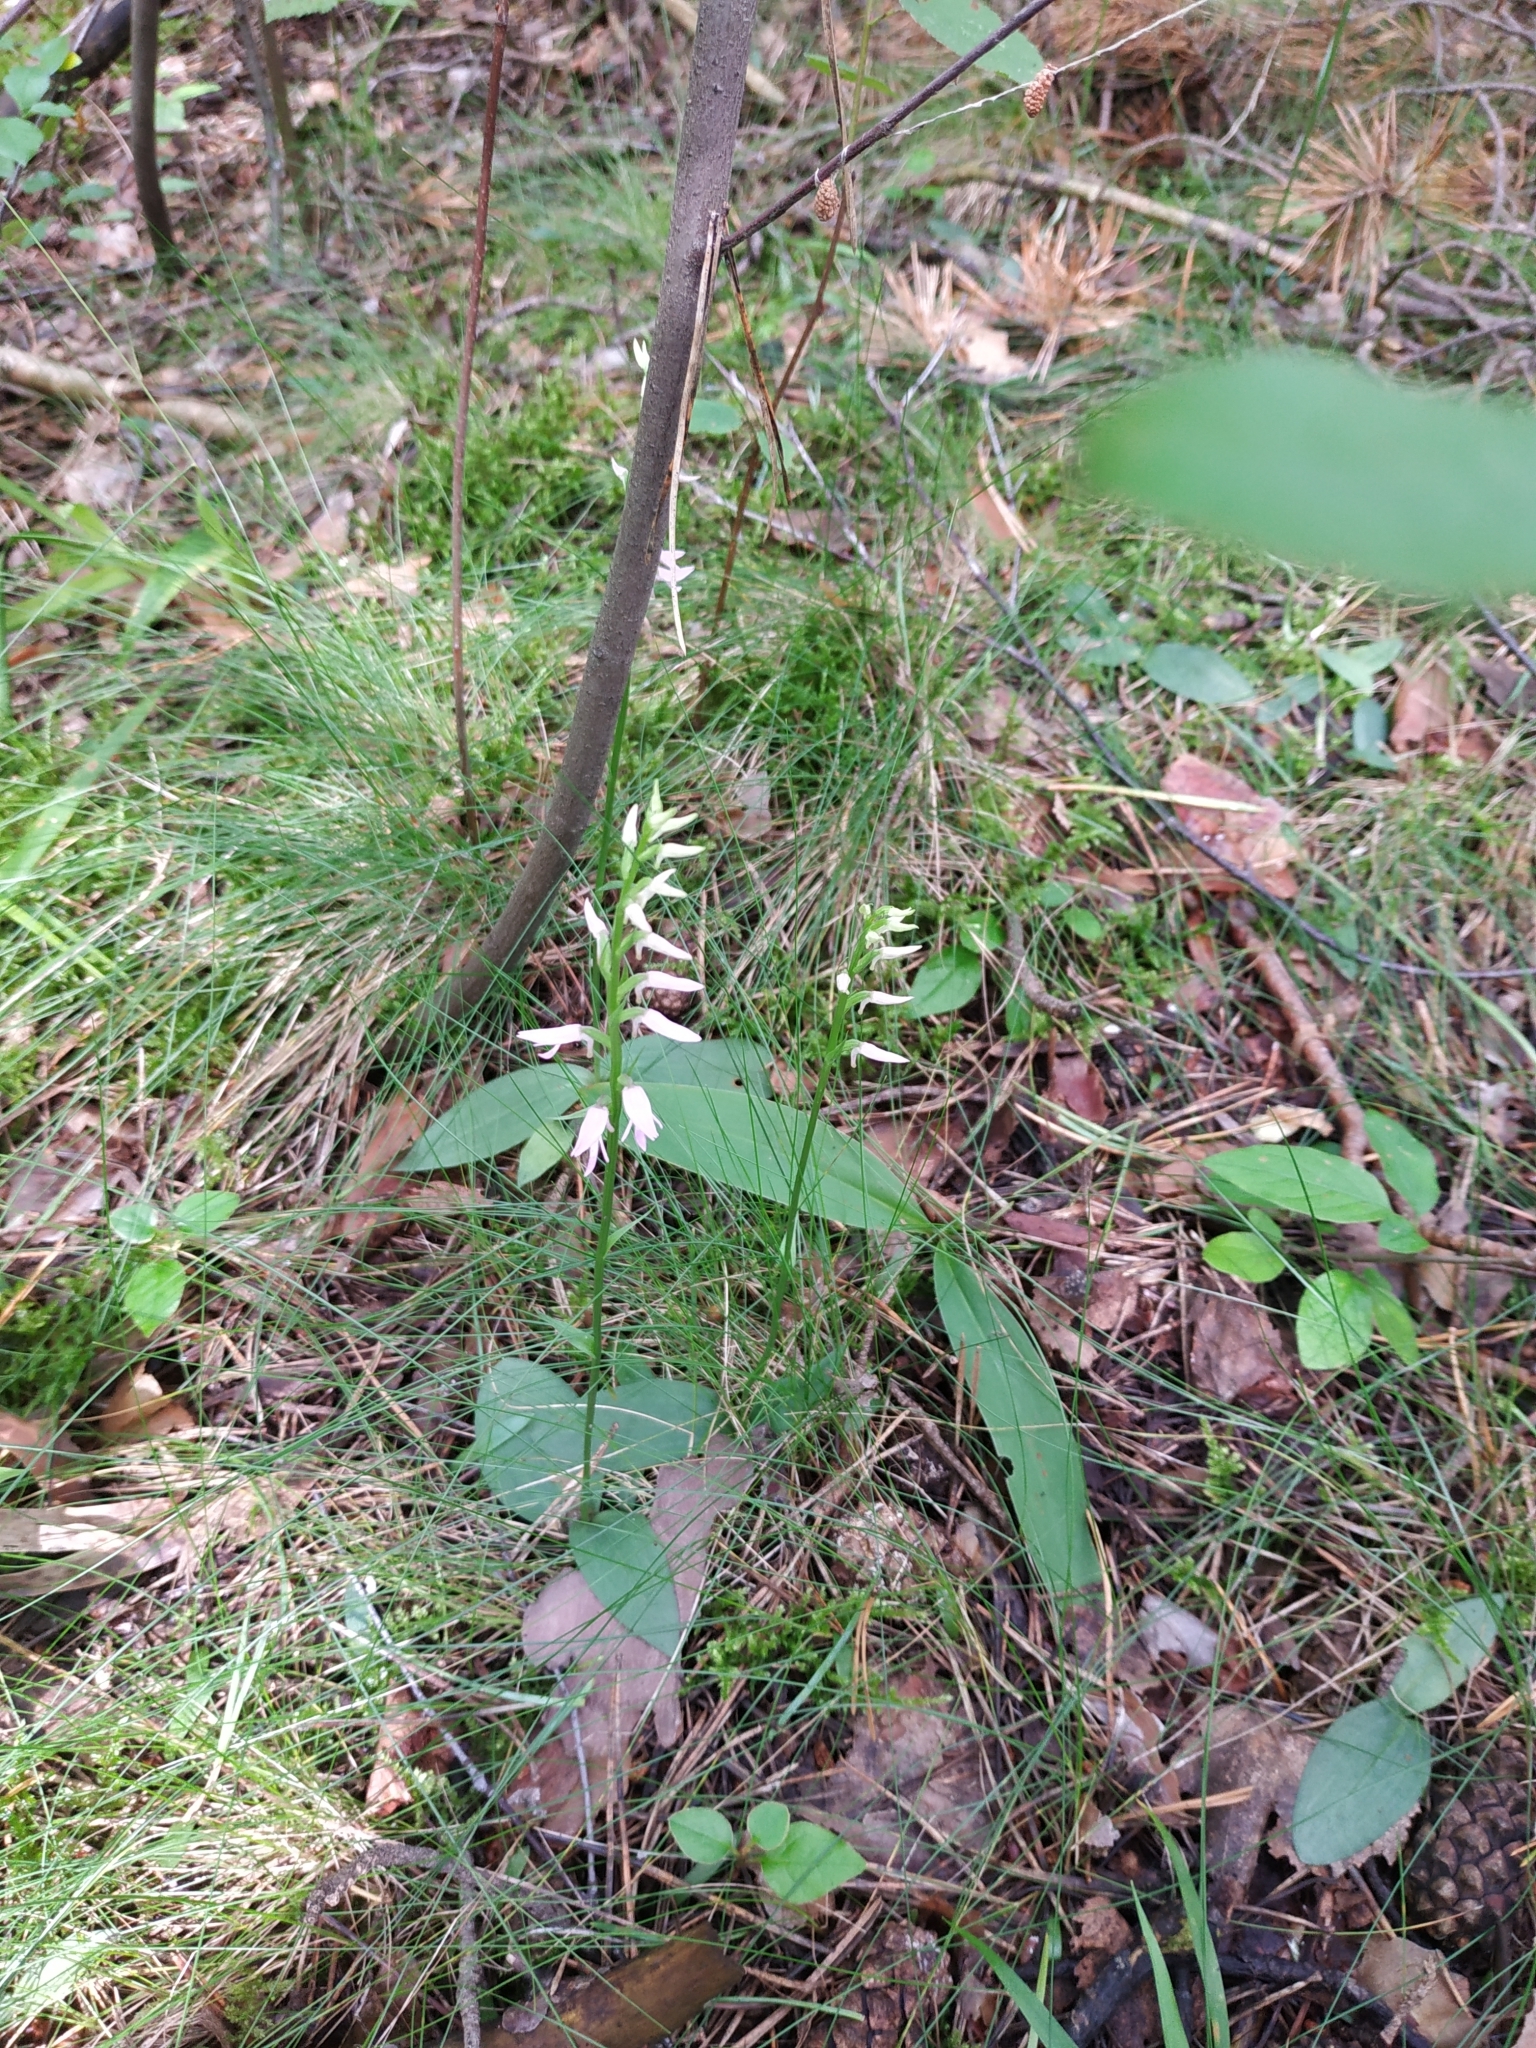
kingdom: Plantae
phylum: Tracheophyta
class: Liliopsida
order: Asparagales
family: Orchidaceae
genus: Hemipilia
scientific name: Hemipilia cucullata
